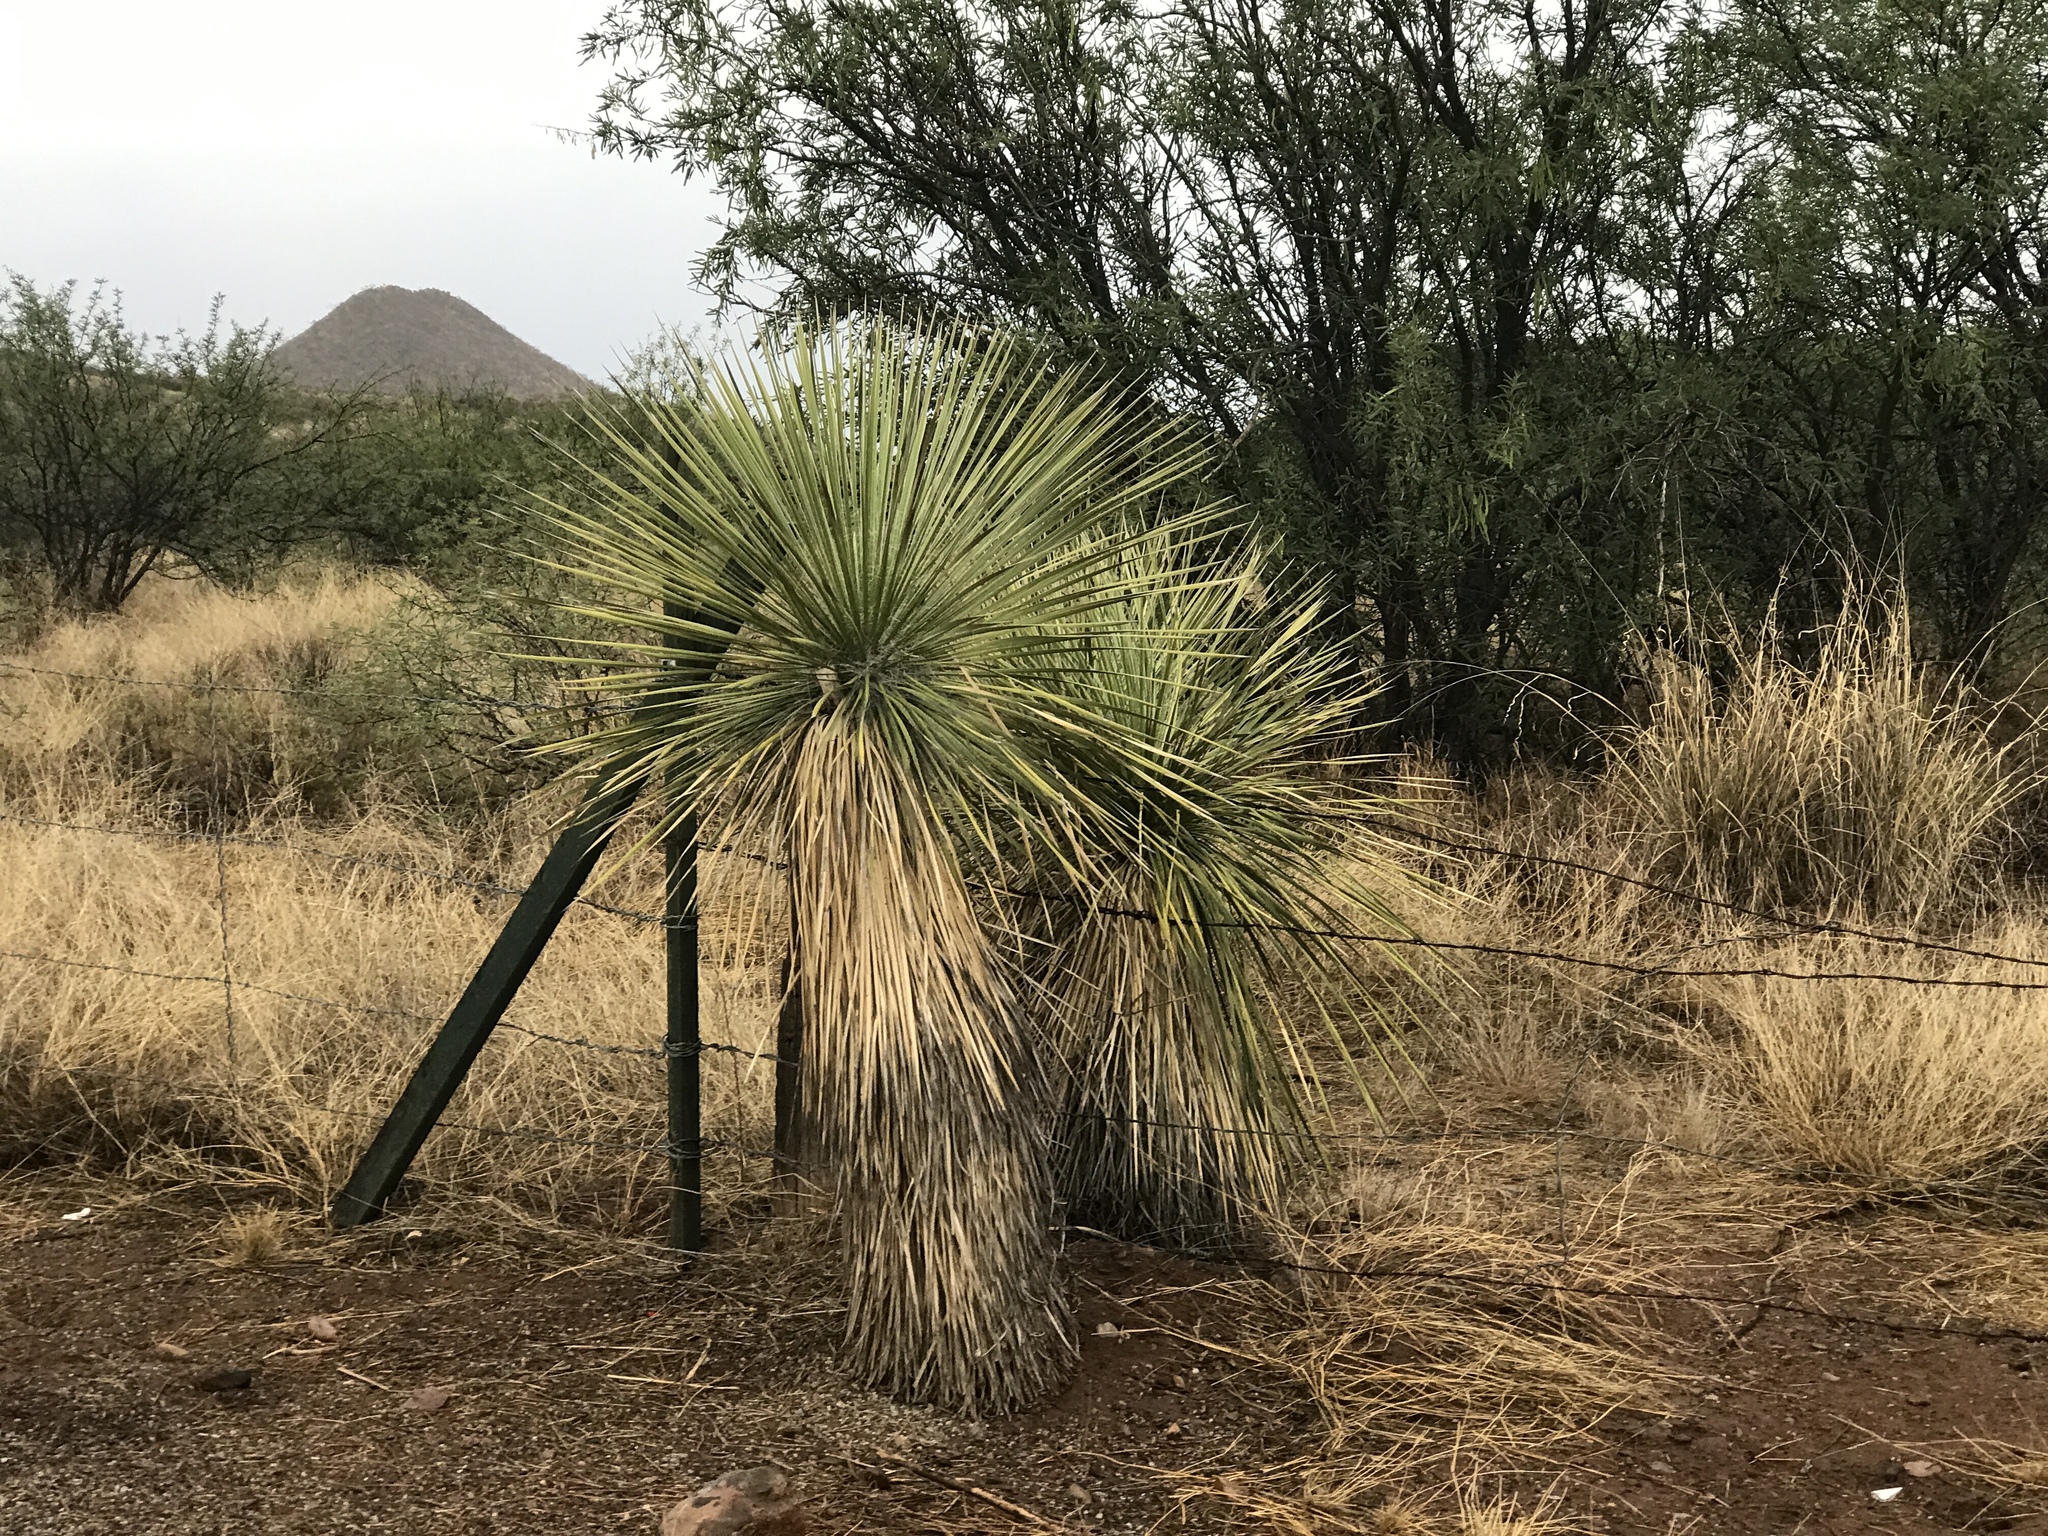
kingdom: Plantae
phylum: Tracheophyta
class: Liliopsida
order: Asparagales
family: Asparagaceae
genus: Yucca
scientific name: Yucca elata
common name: Palmella
